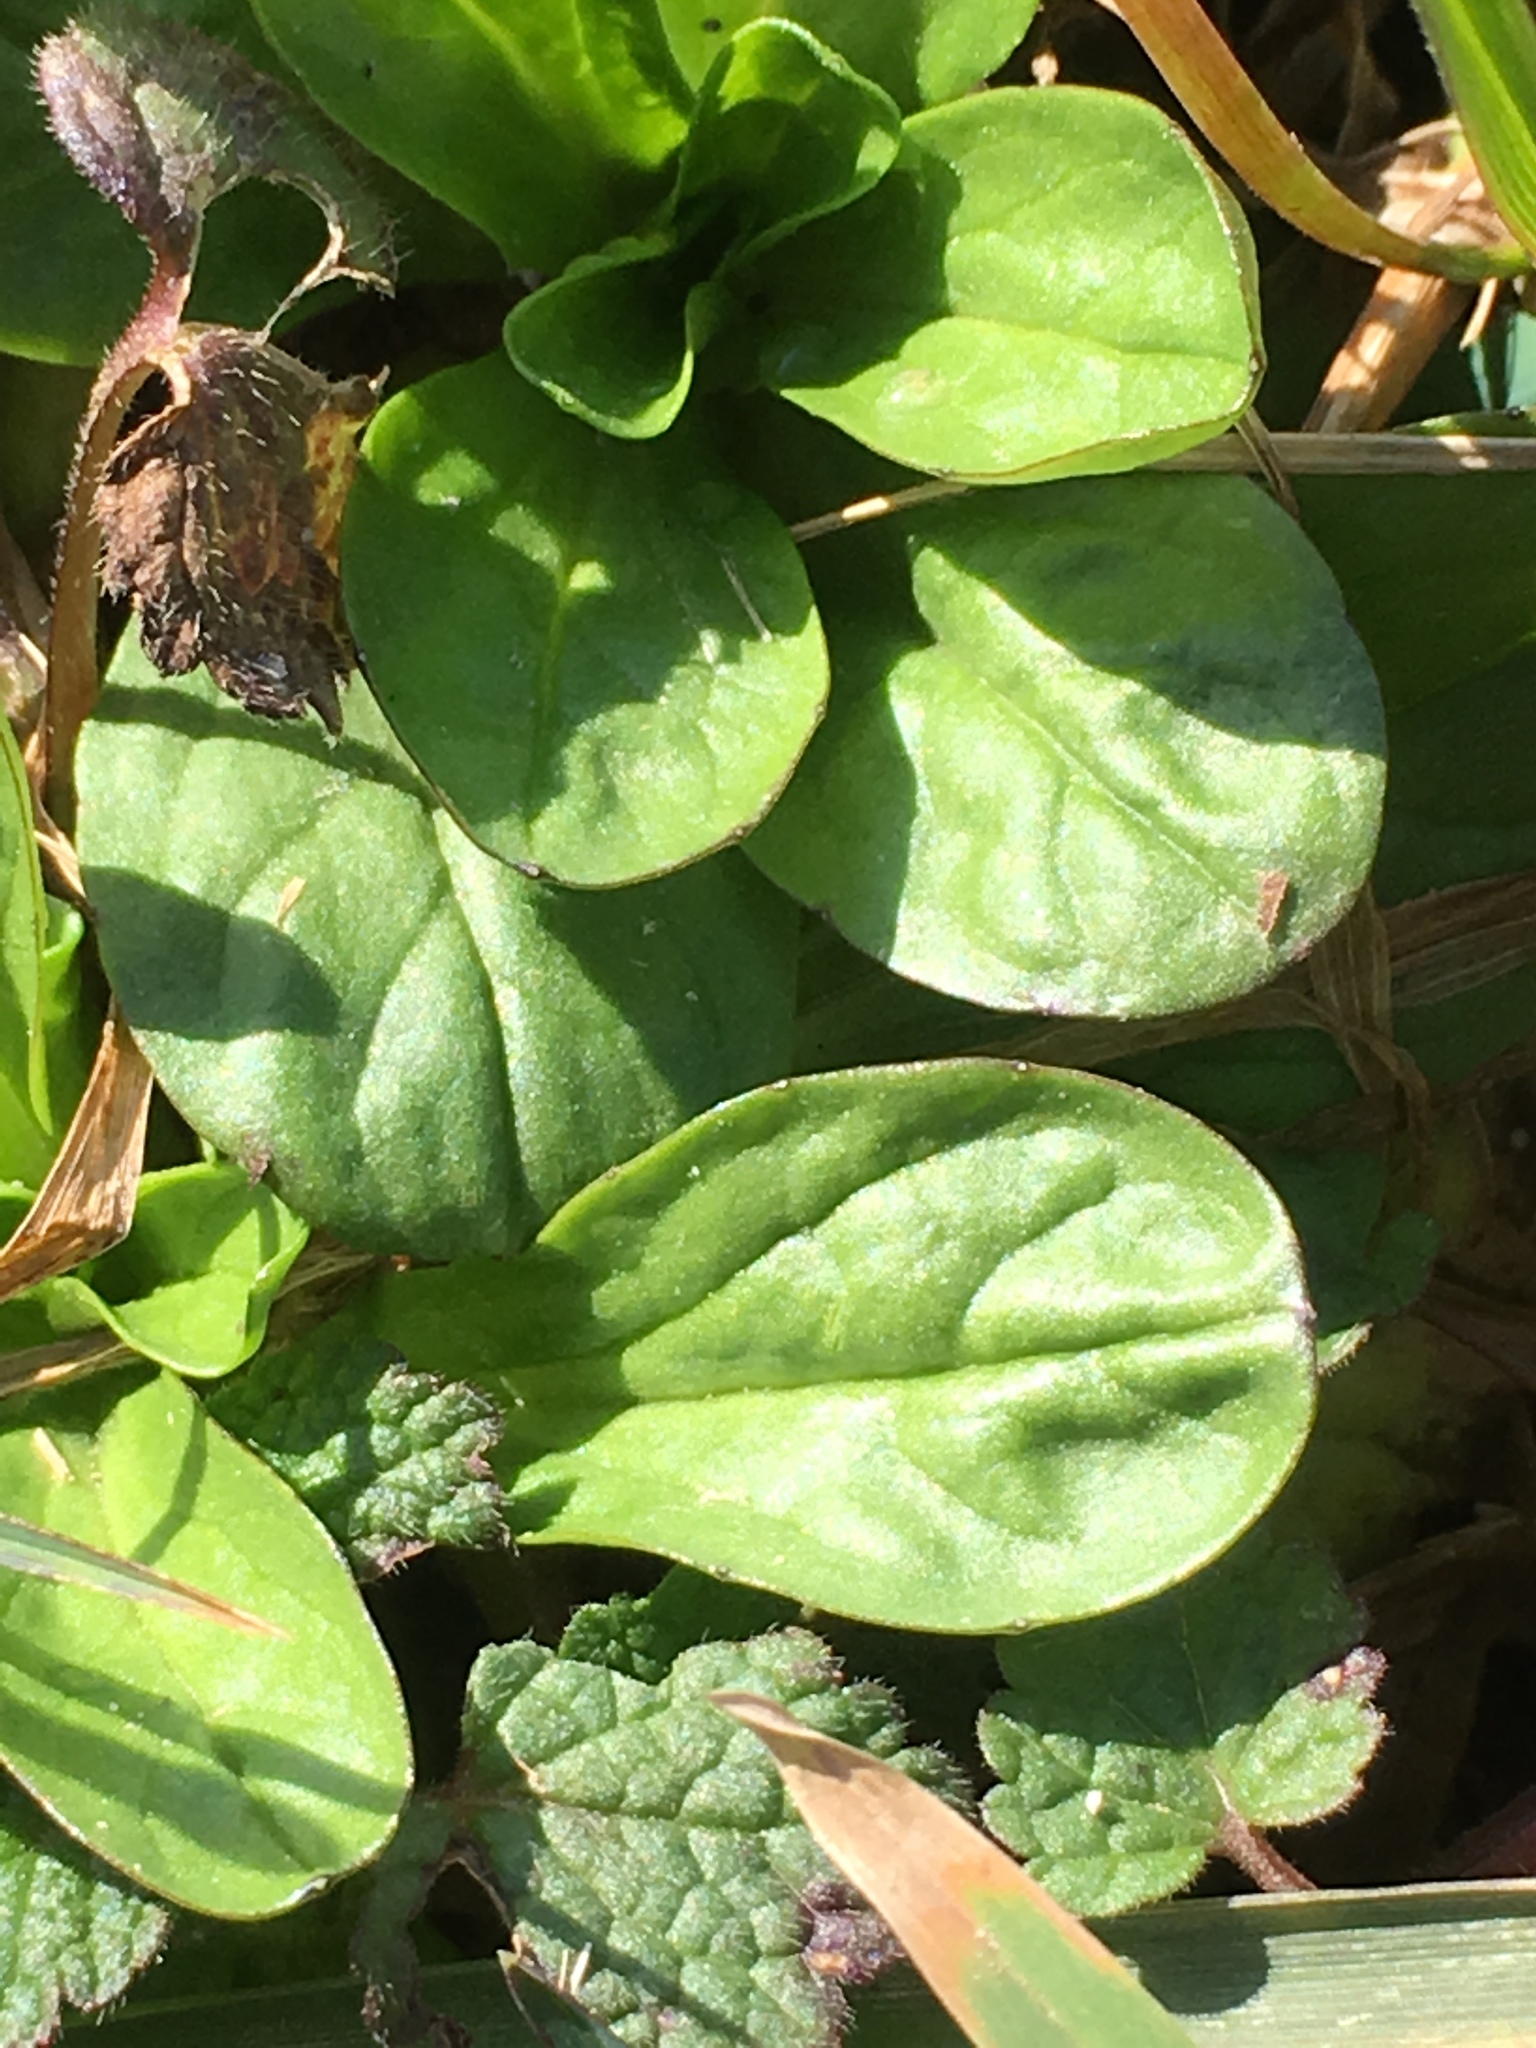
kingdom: Plantae
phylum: Tracheophyta
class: Magnoliopsida
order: Lamiales
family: Lamiaceae
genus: Ajuga
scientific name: Ajuga reptans
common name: Bugle
